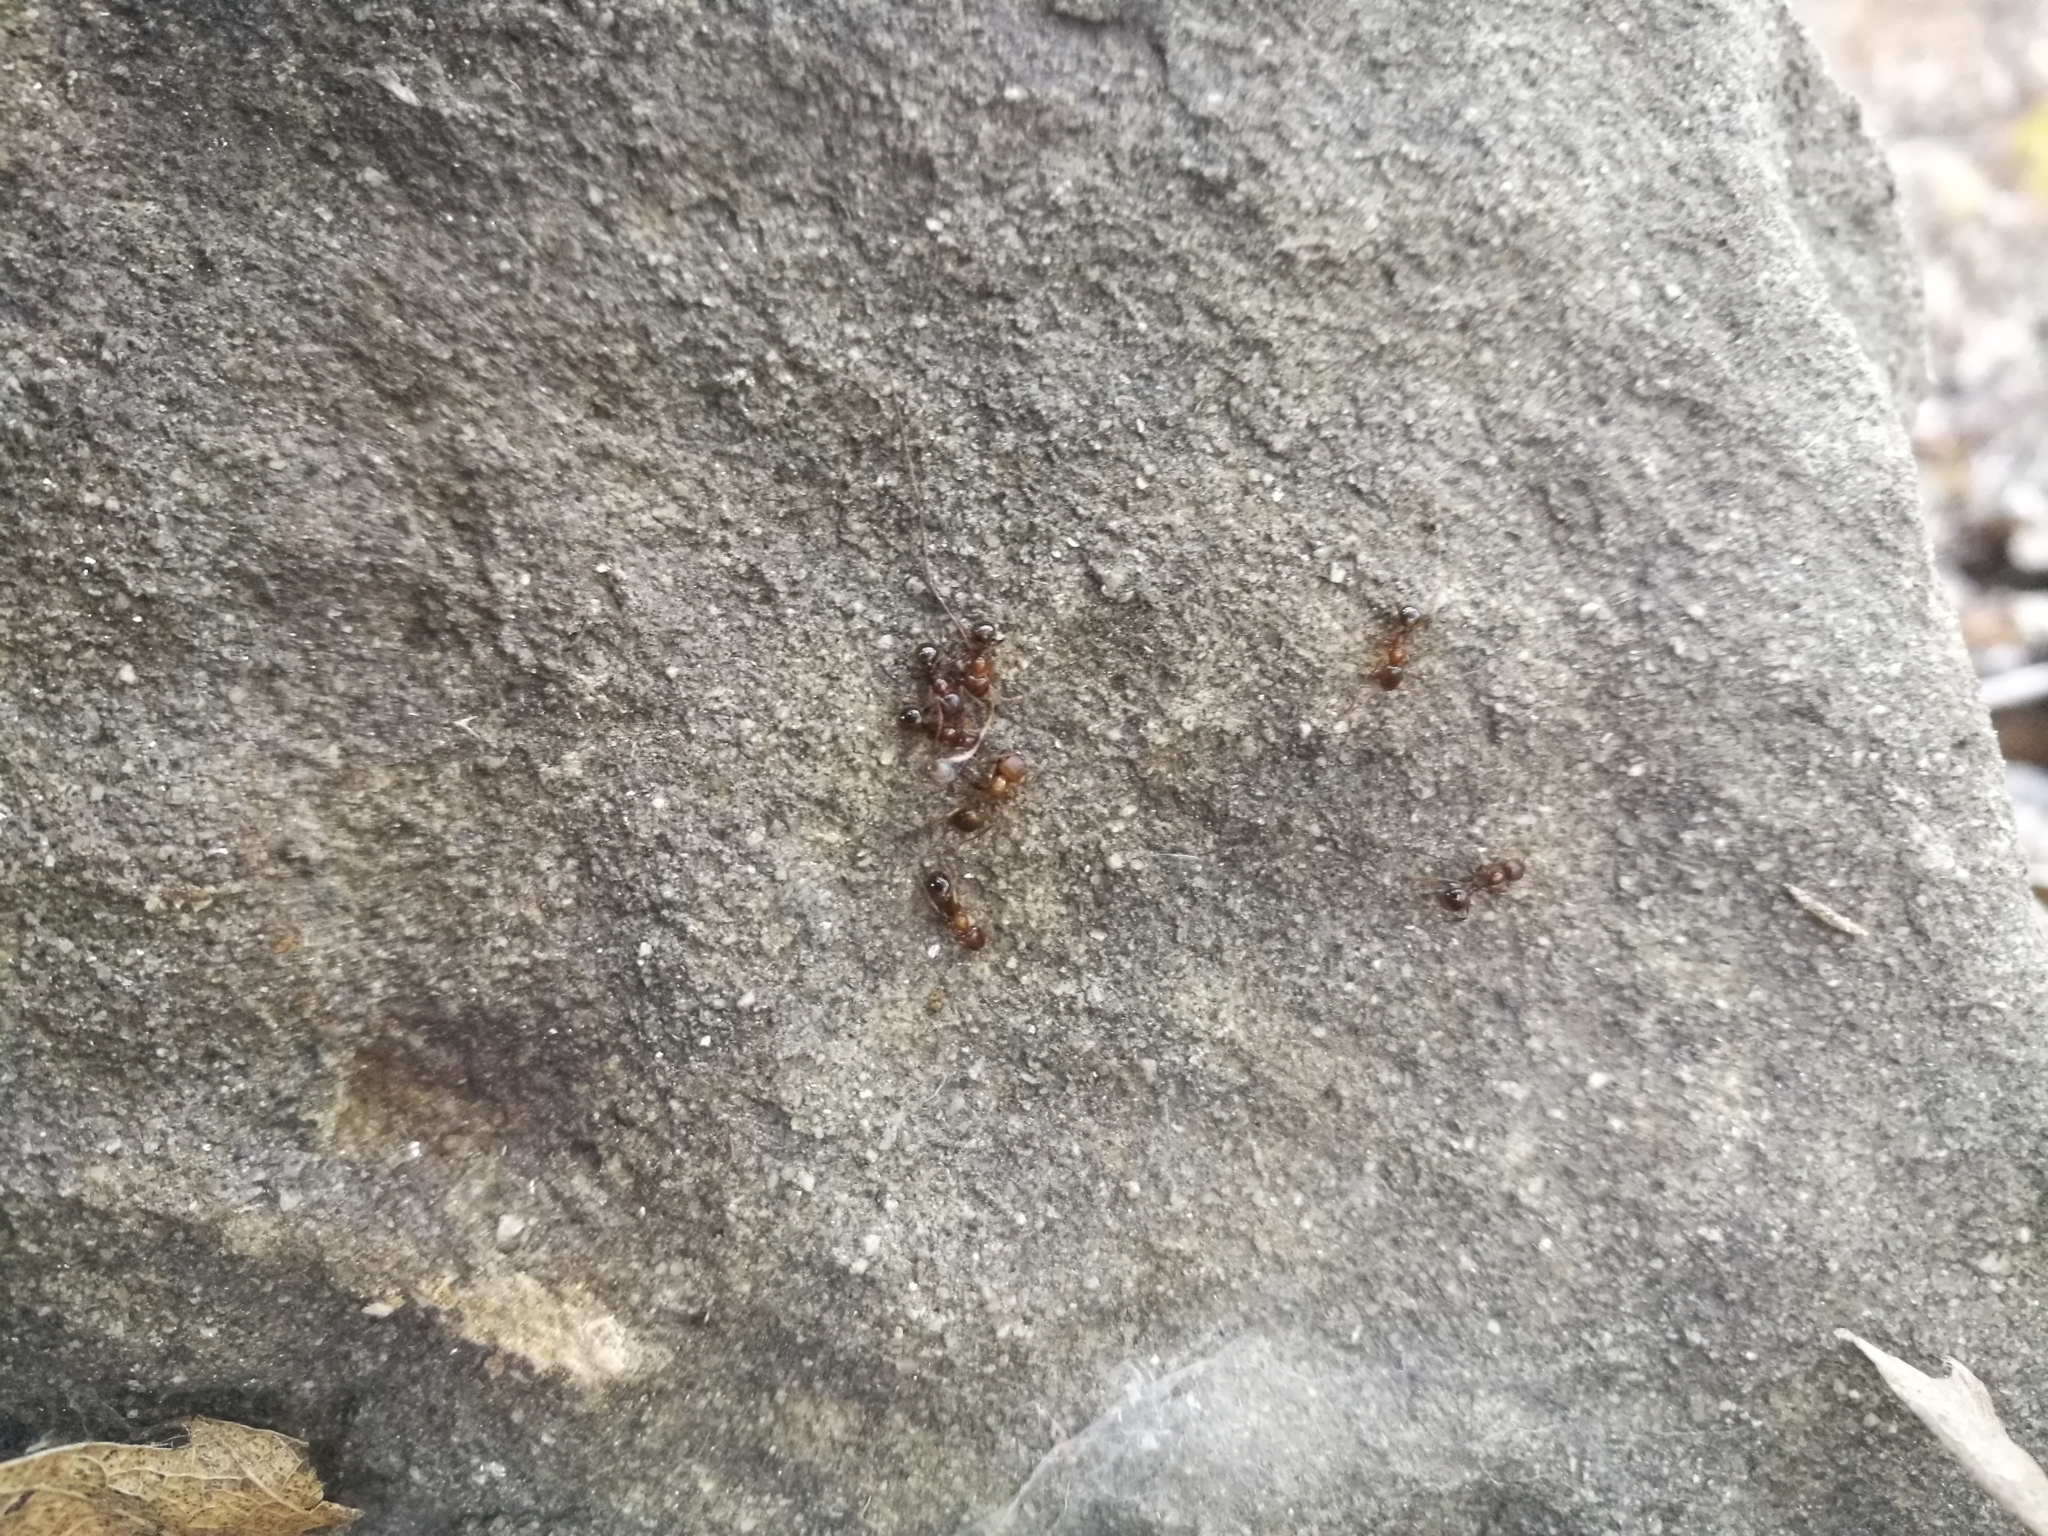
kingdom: Animalia
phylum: Arthropoda
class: Insecta
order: Hymenoptera
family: Formicidae
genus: Aphaenogaster
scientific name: Aphaenogaster subterranea
